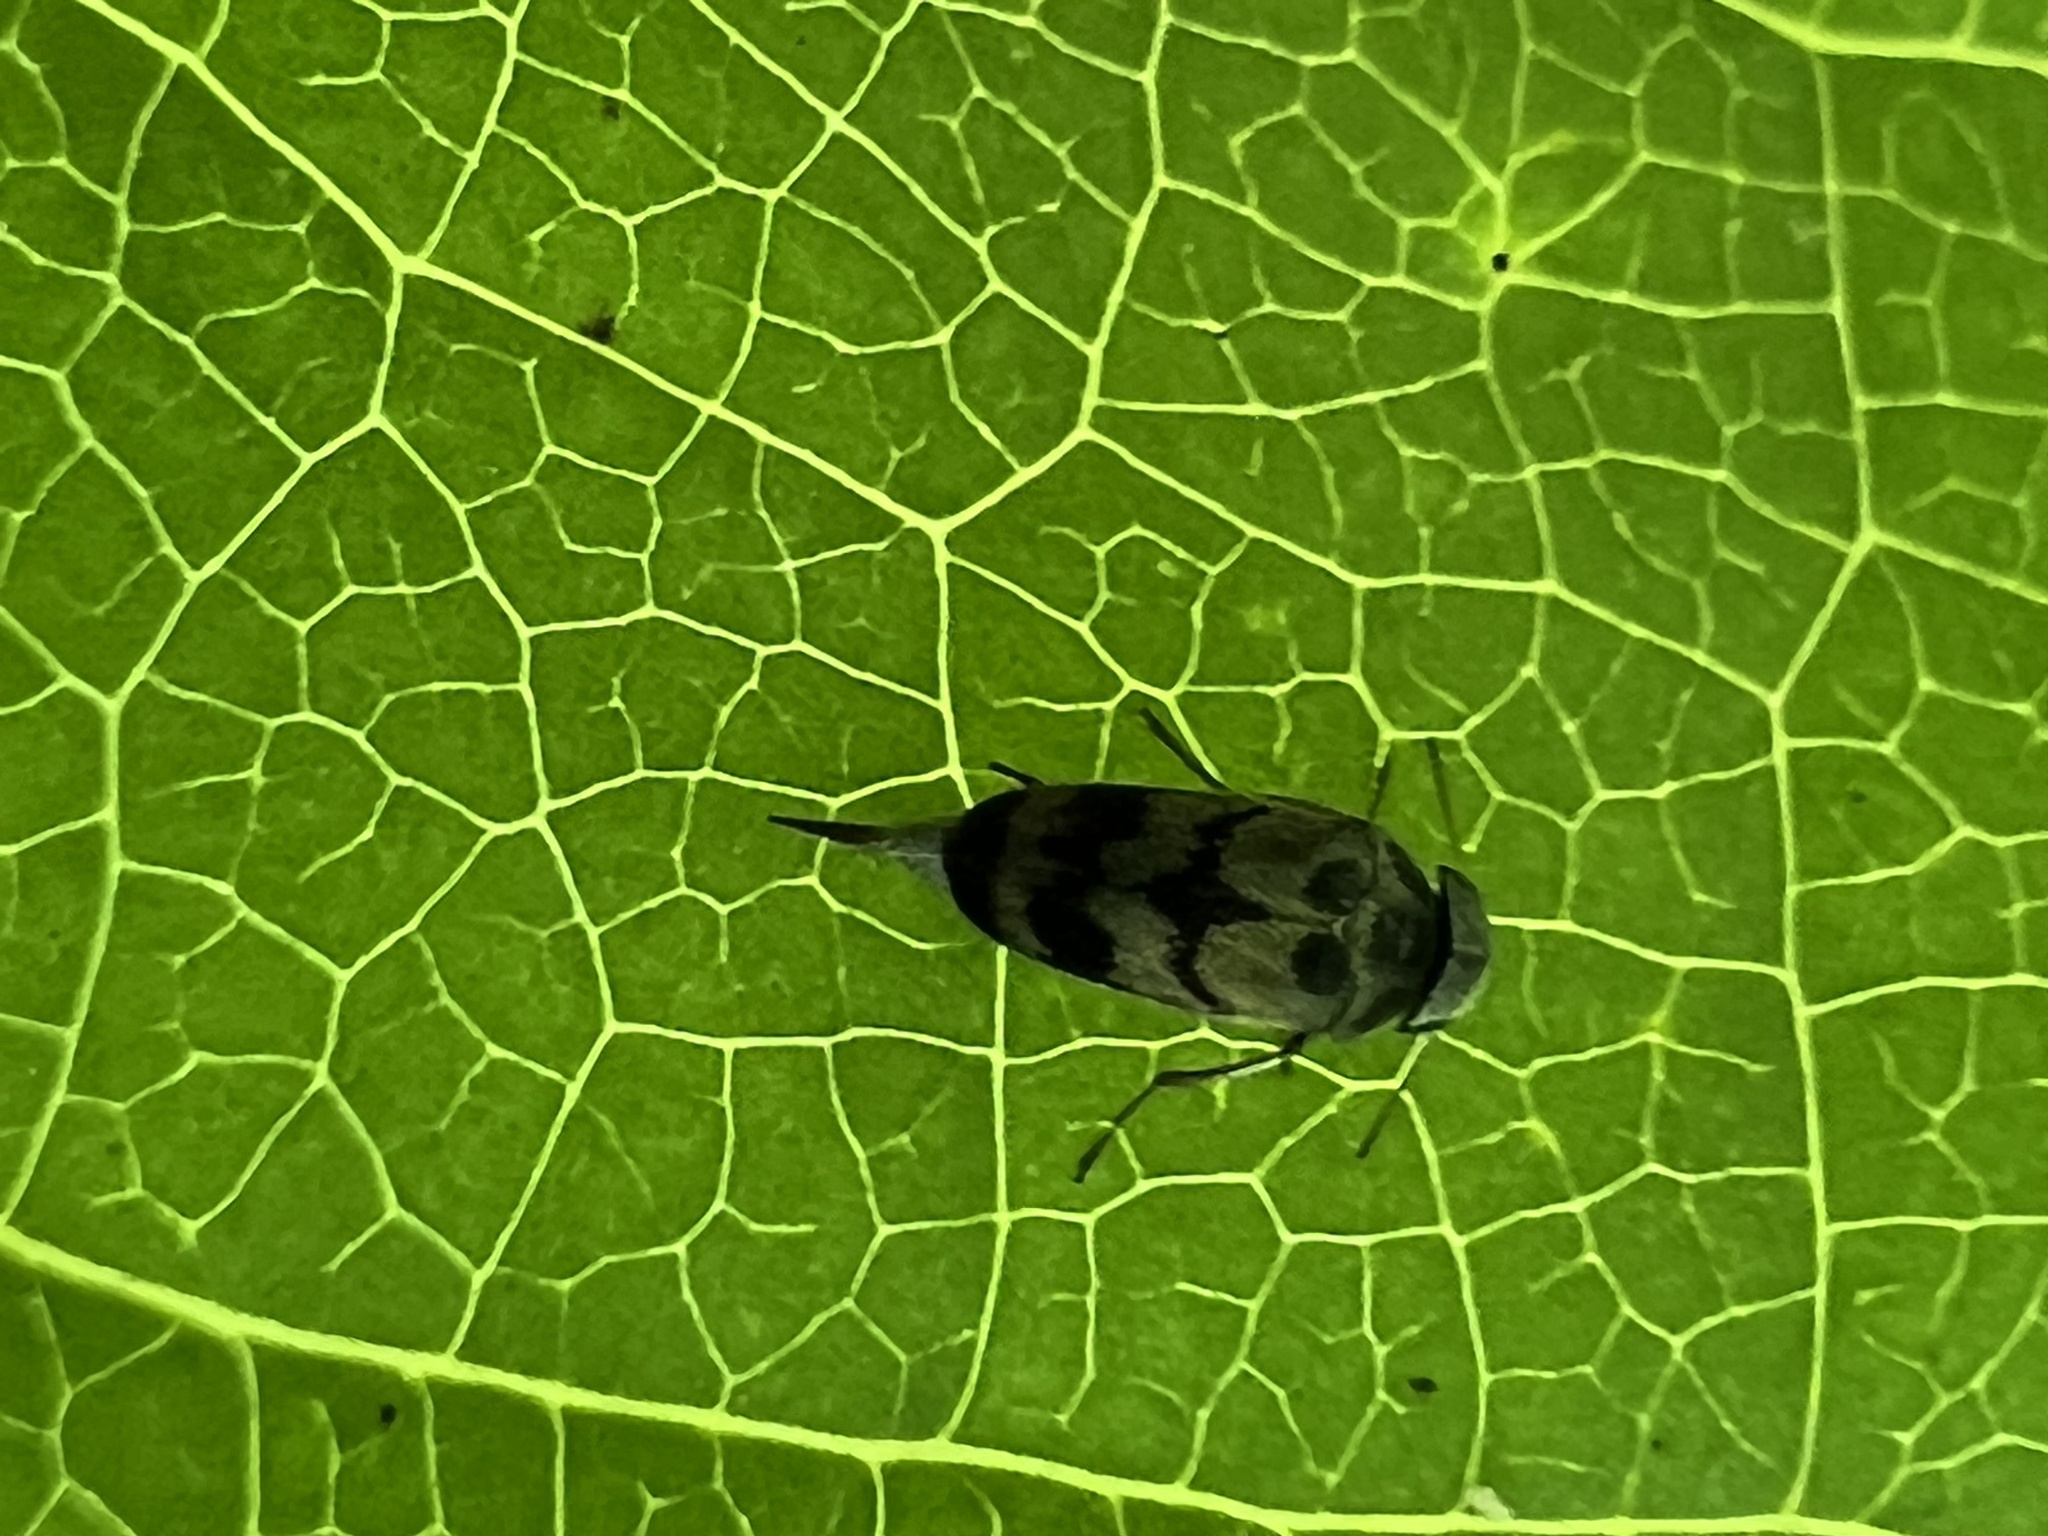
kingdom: Animalia
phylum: Arthropoda
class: Insecta
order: Coleoptera
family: Mordellidae
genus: Paramordellaria
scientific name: Paramordellaria triloba
